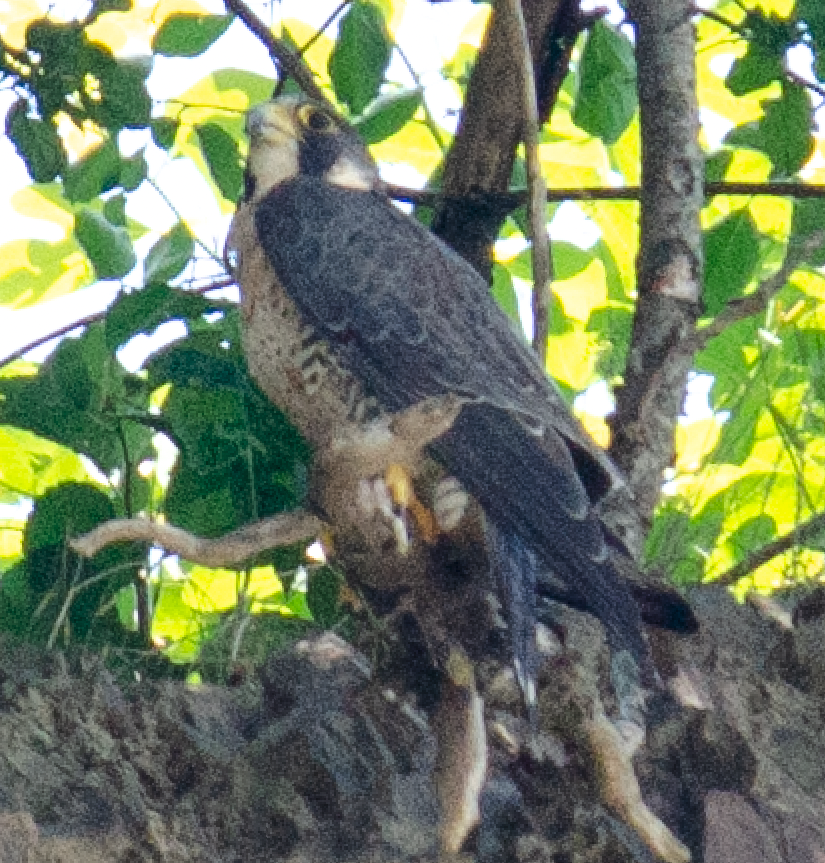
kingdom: Animalia
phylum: Chordata
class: Aves
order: Falconiformes
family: Falconidae
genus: Falco
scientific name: Falco peregrinus
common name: Peregrine falcon
